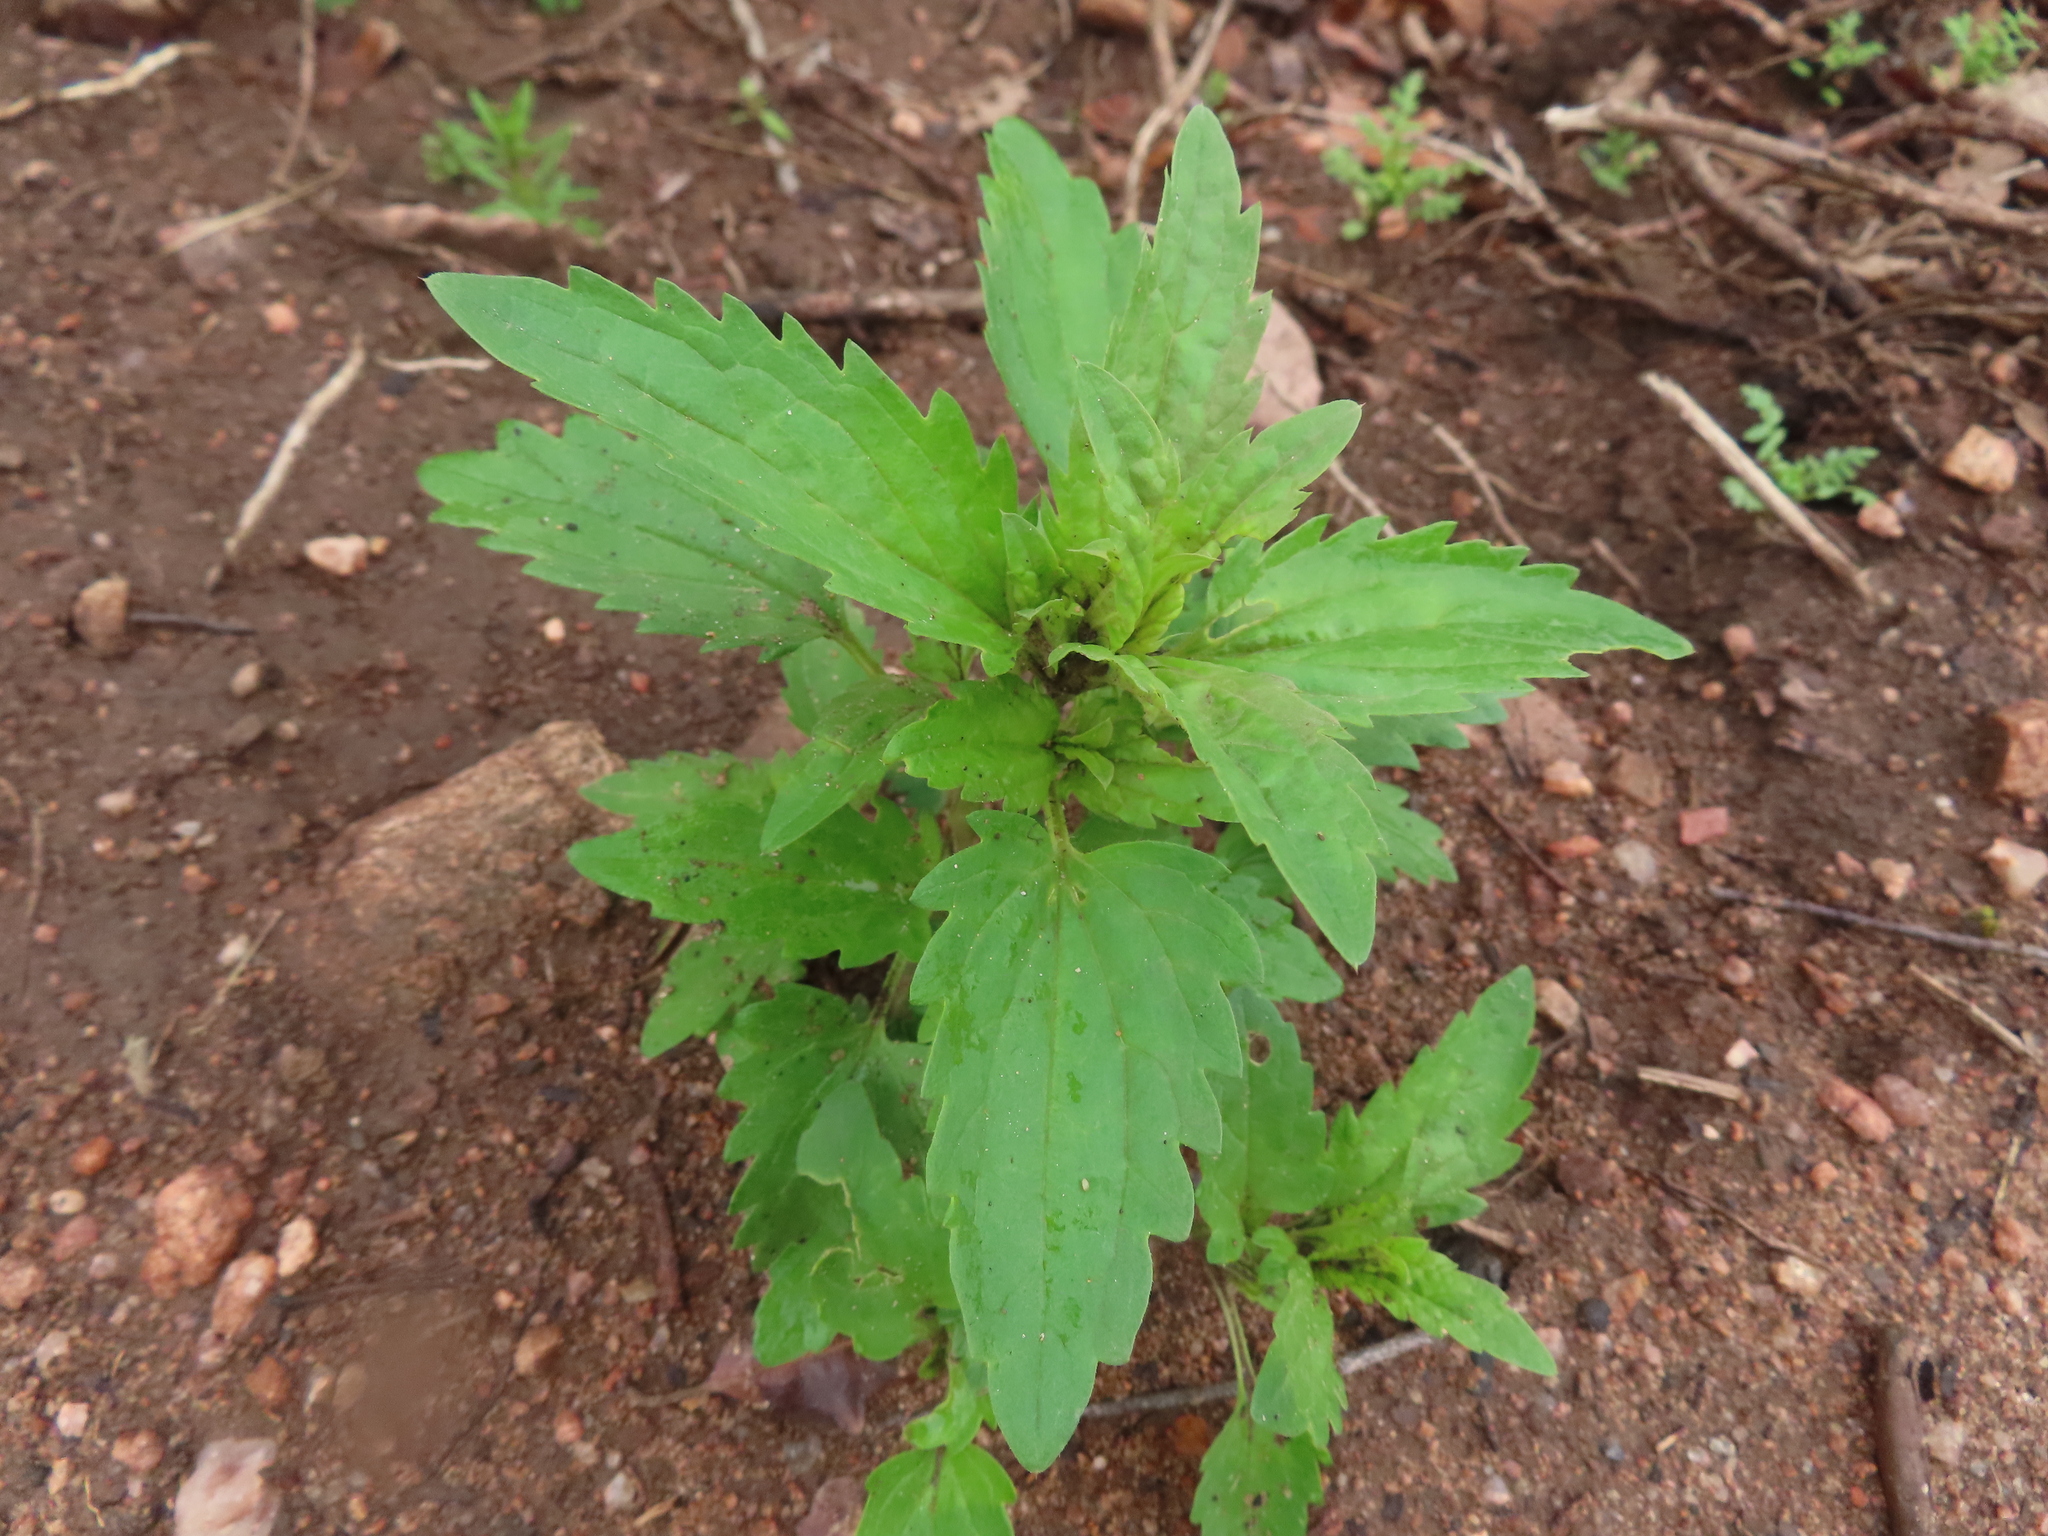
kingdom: Plantae
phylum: Tracheophyta
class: Magnoliopsida
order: Lamiales
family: Lamiaceae
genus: Dracocephalum
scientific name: Dracocephalum parviflorum
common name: American dragonhead
